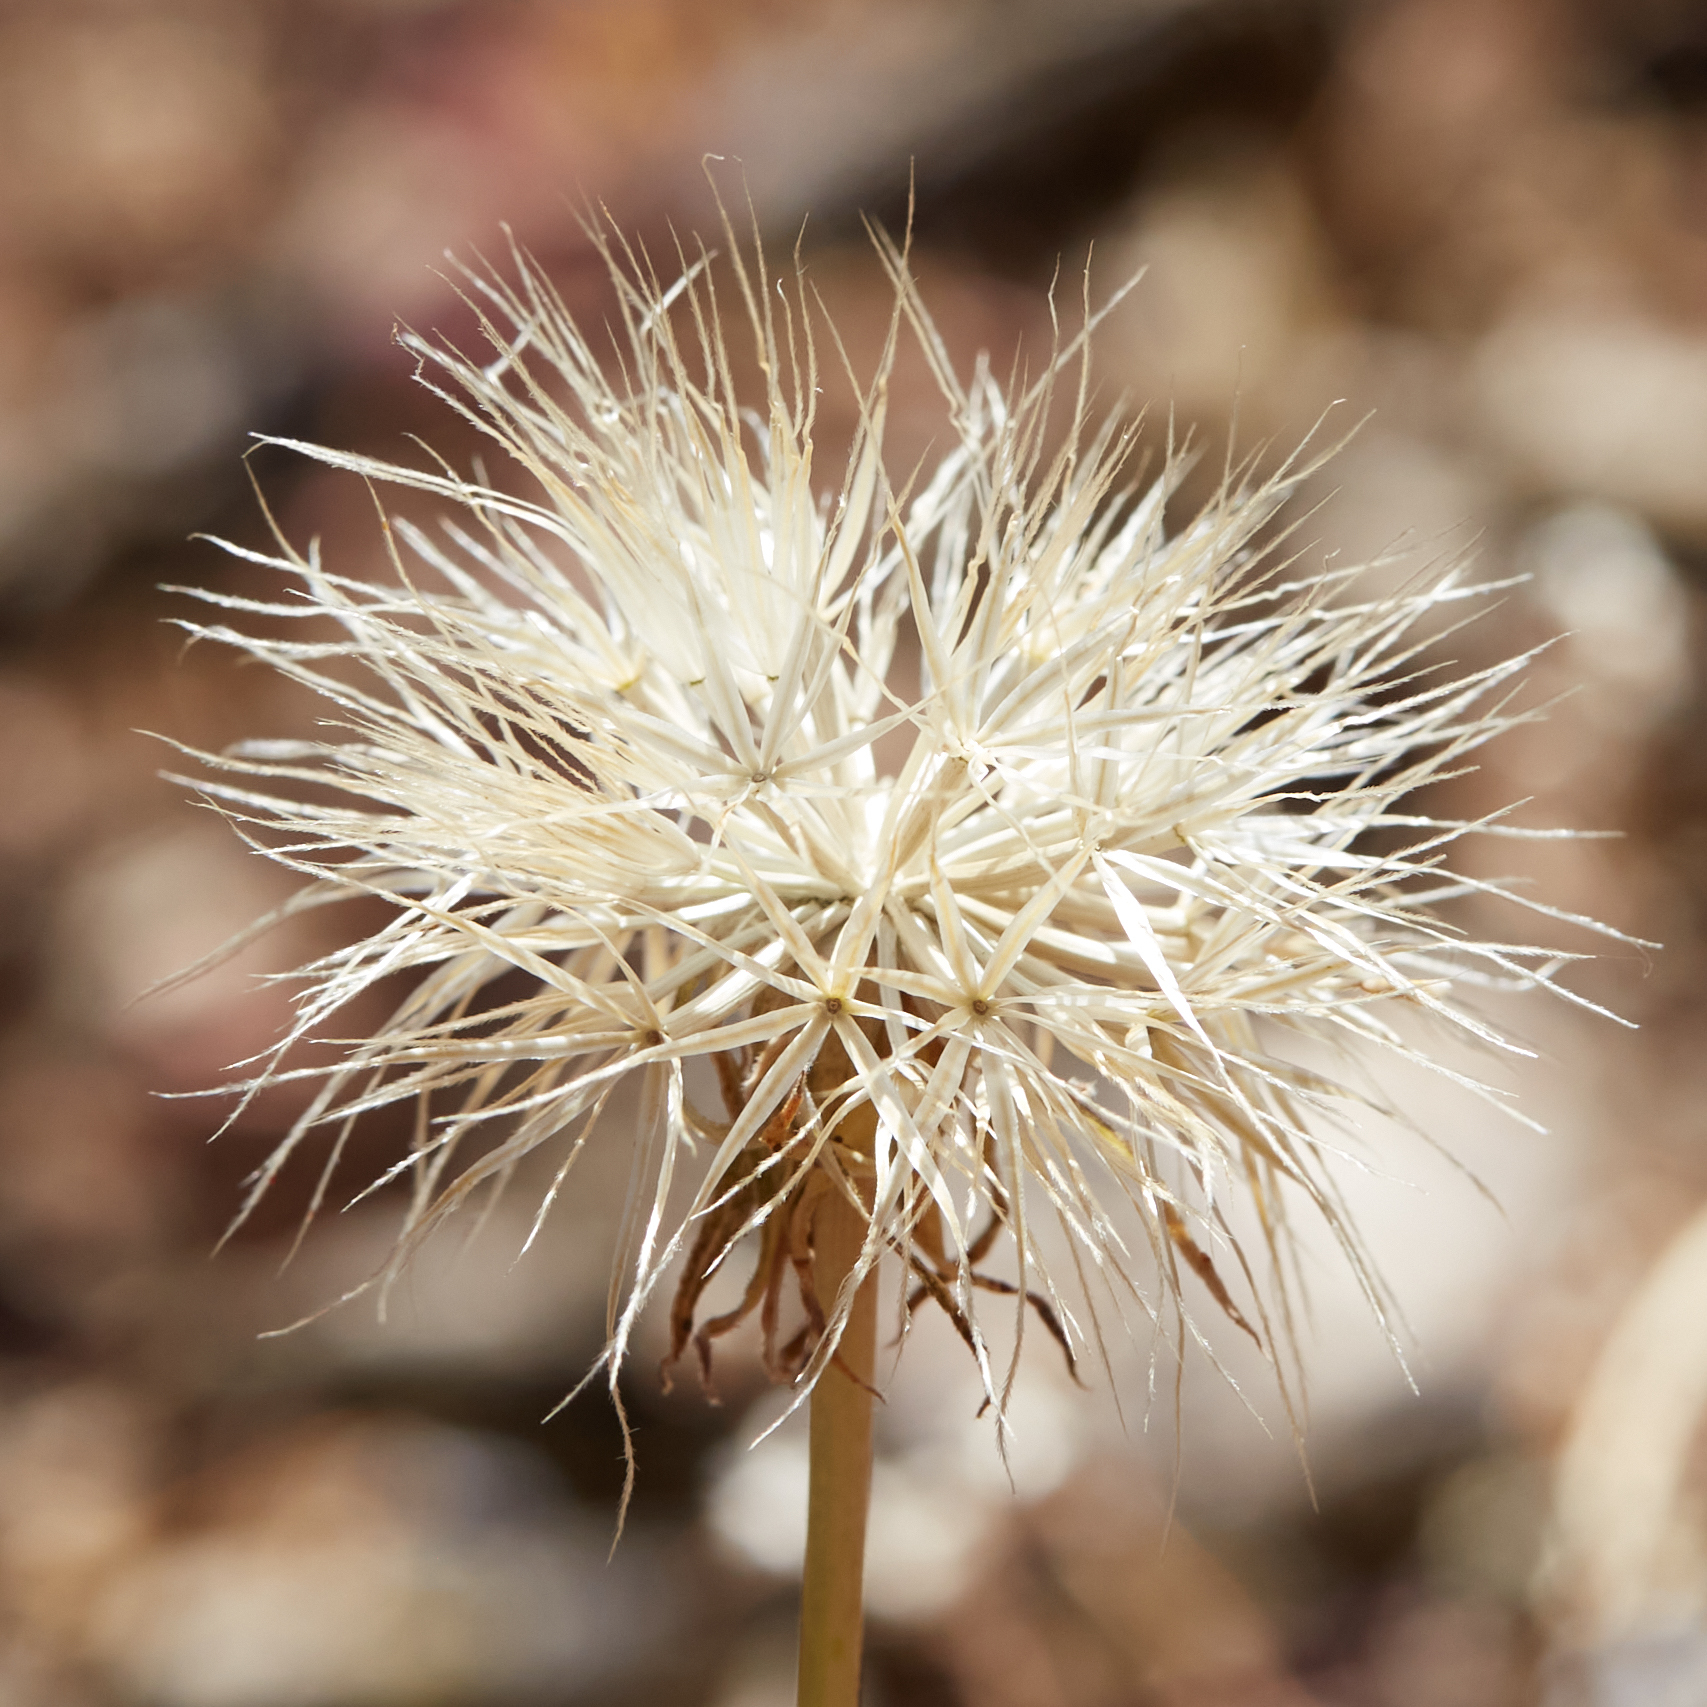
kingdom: Plantae
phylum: Tracheophyta
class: Magnoliopsida
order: Asterales
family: Asteraceae
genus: Microseris
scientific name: Microseris sylvatica
